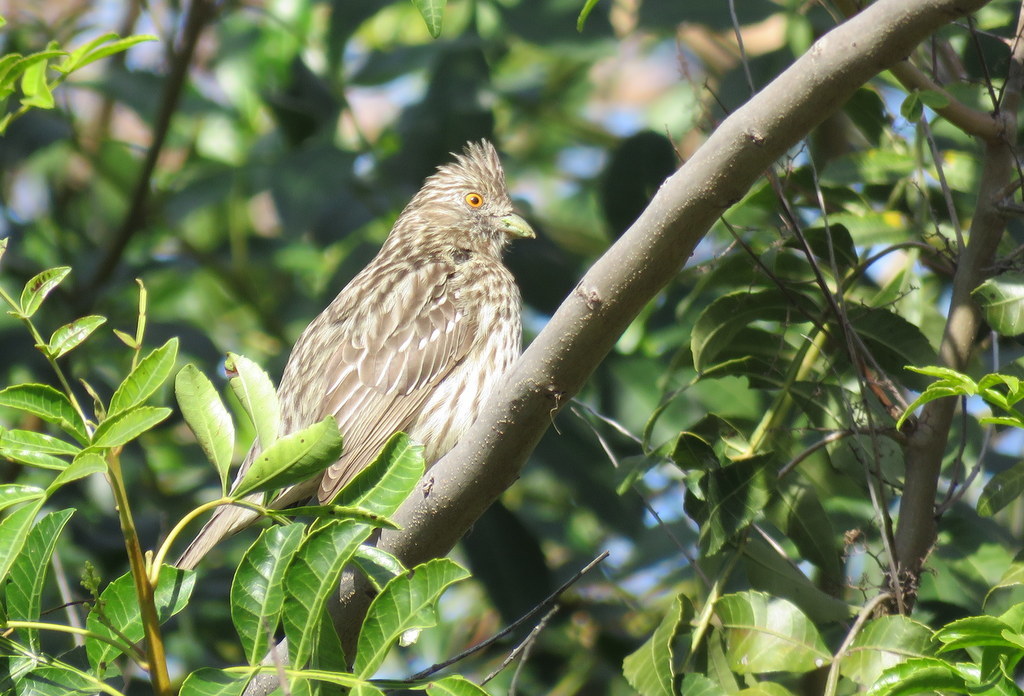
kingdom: Animalia
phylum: Chordata
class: Aves
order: Passeriformes
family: Cotingidae
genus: Phytotoma
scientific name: Phytotoma rutila
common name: White-tipped plantcutter
